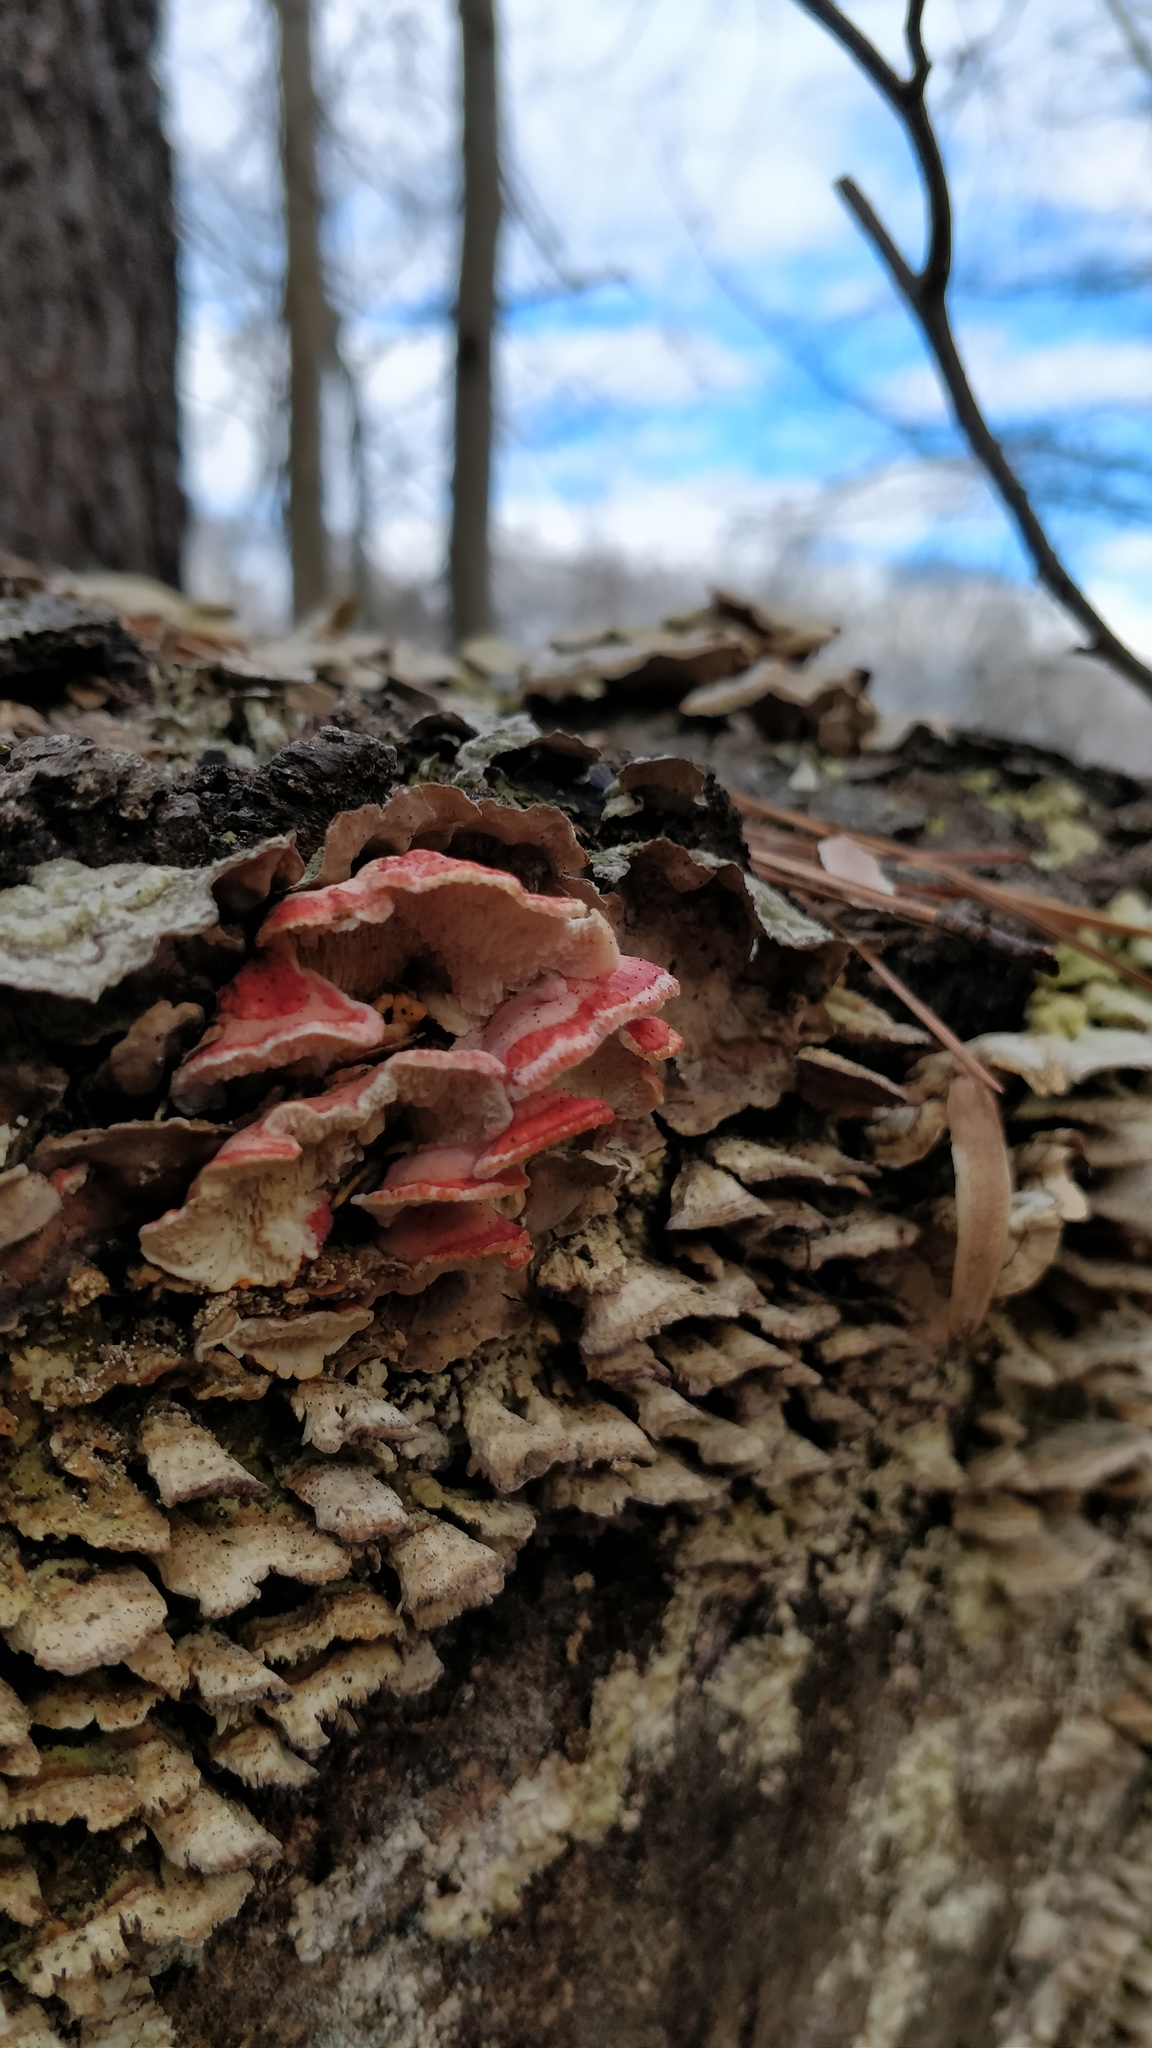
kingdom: Fungi
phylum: Basidiomycota
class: Agaricomycetes
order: Polyporales
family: Irpicaceae
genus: Byssomerulius
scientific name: Byssomerulius incarnatus
